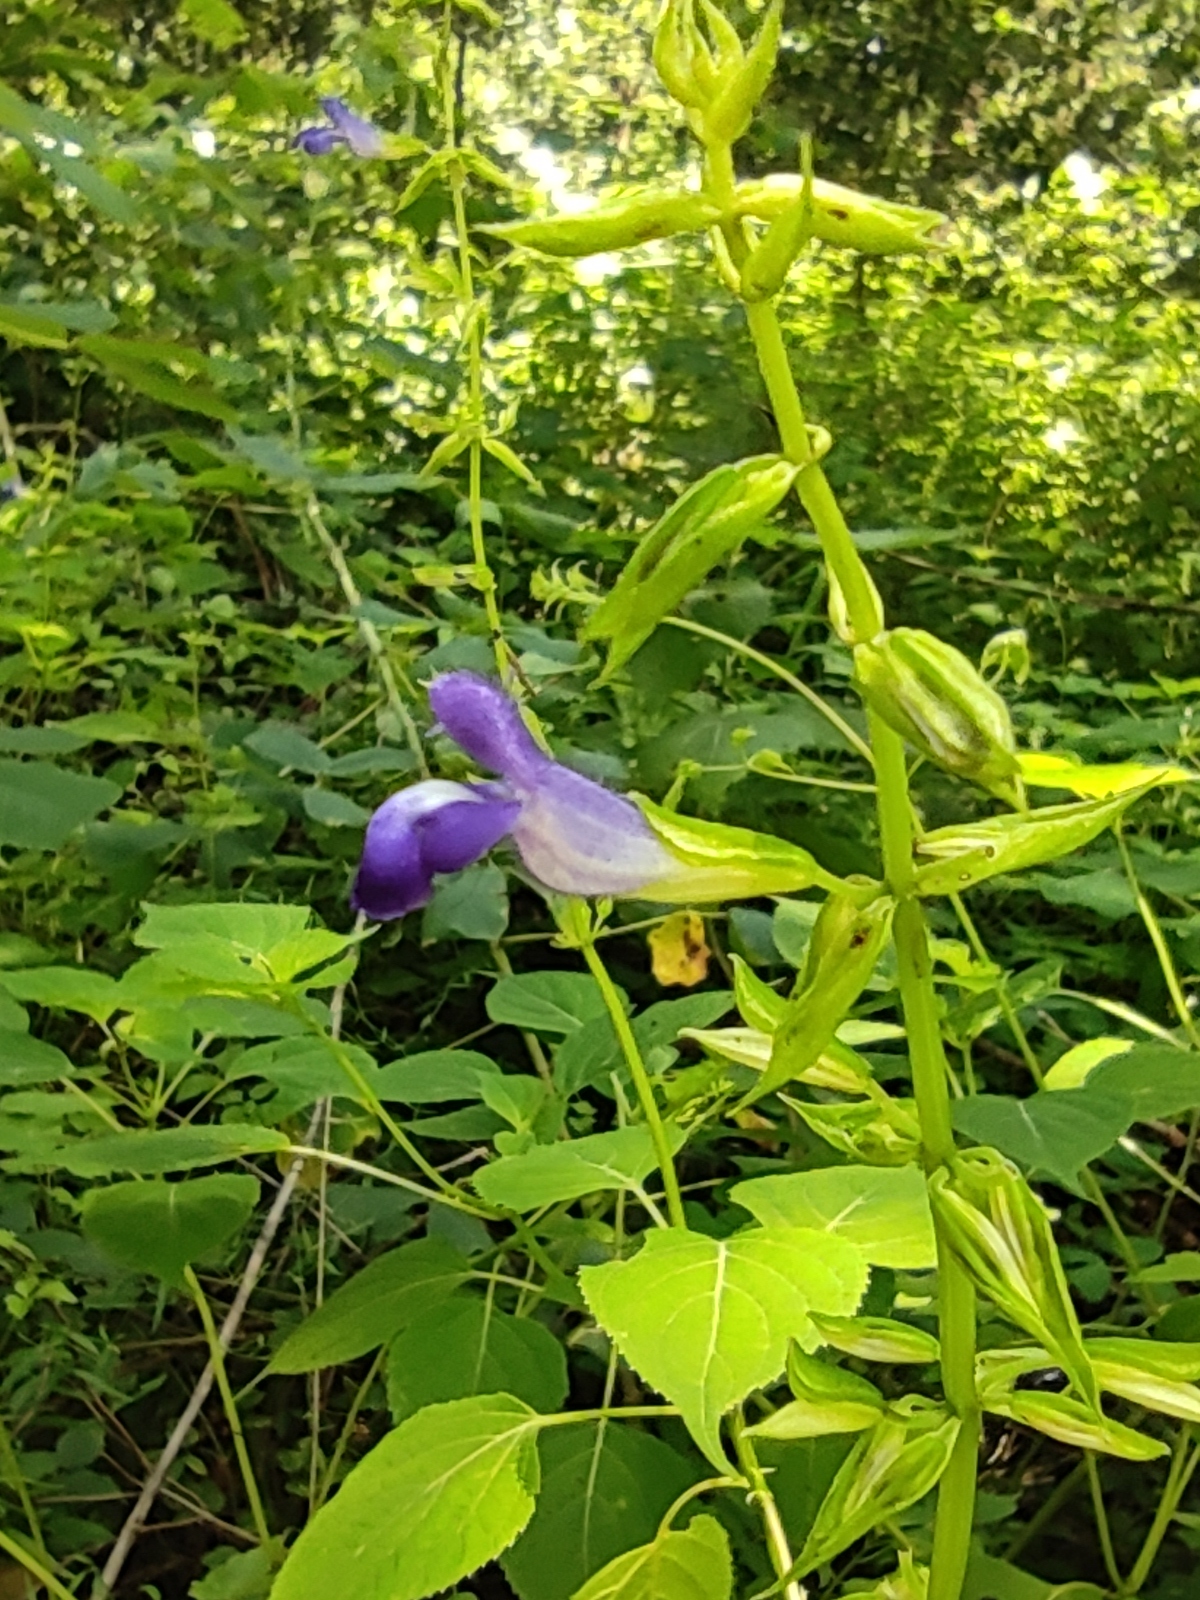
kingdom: Plantae
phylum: Tracheophyta
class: Magnoliopsida
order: Lamiales
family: Lamiaceae
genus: Salvia
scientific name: Salvia caudata
